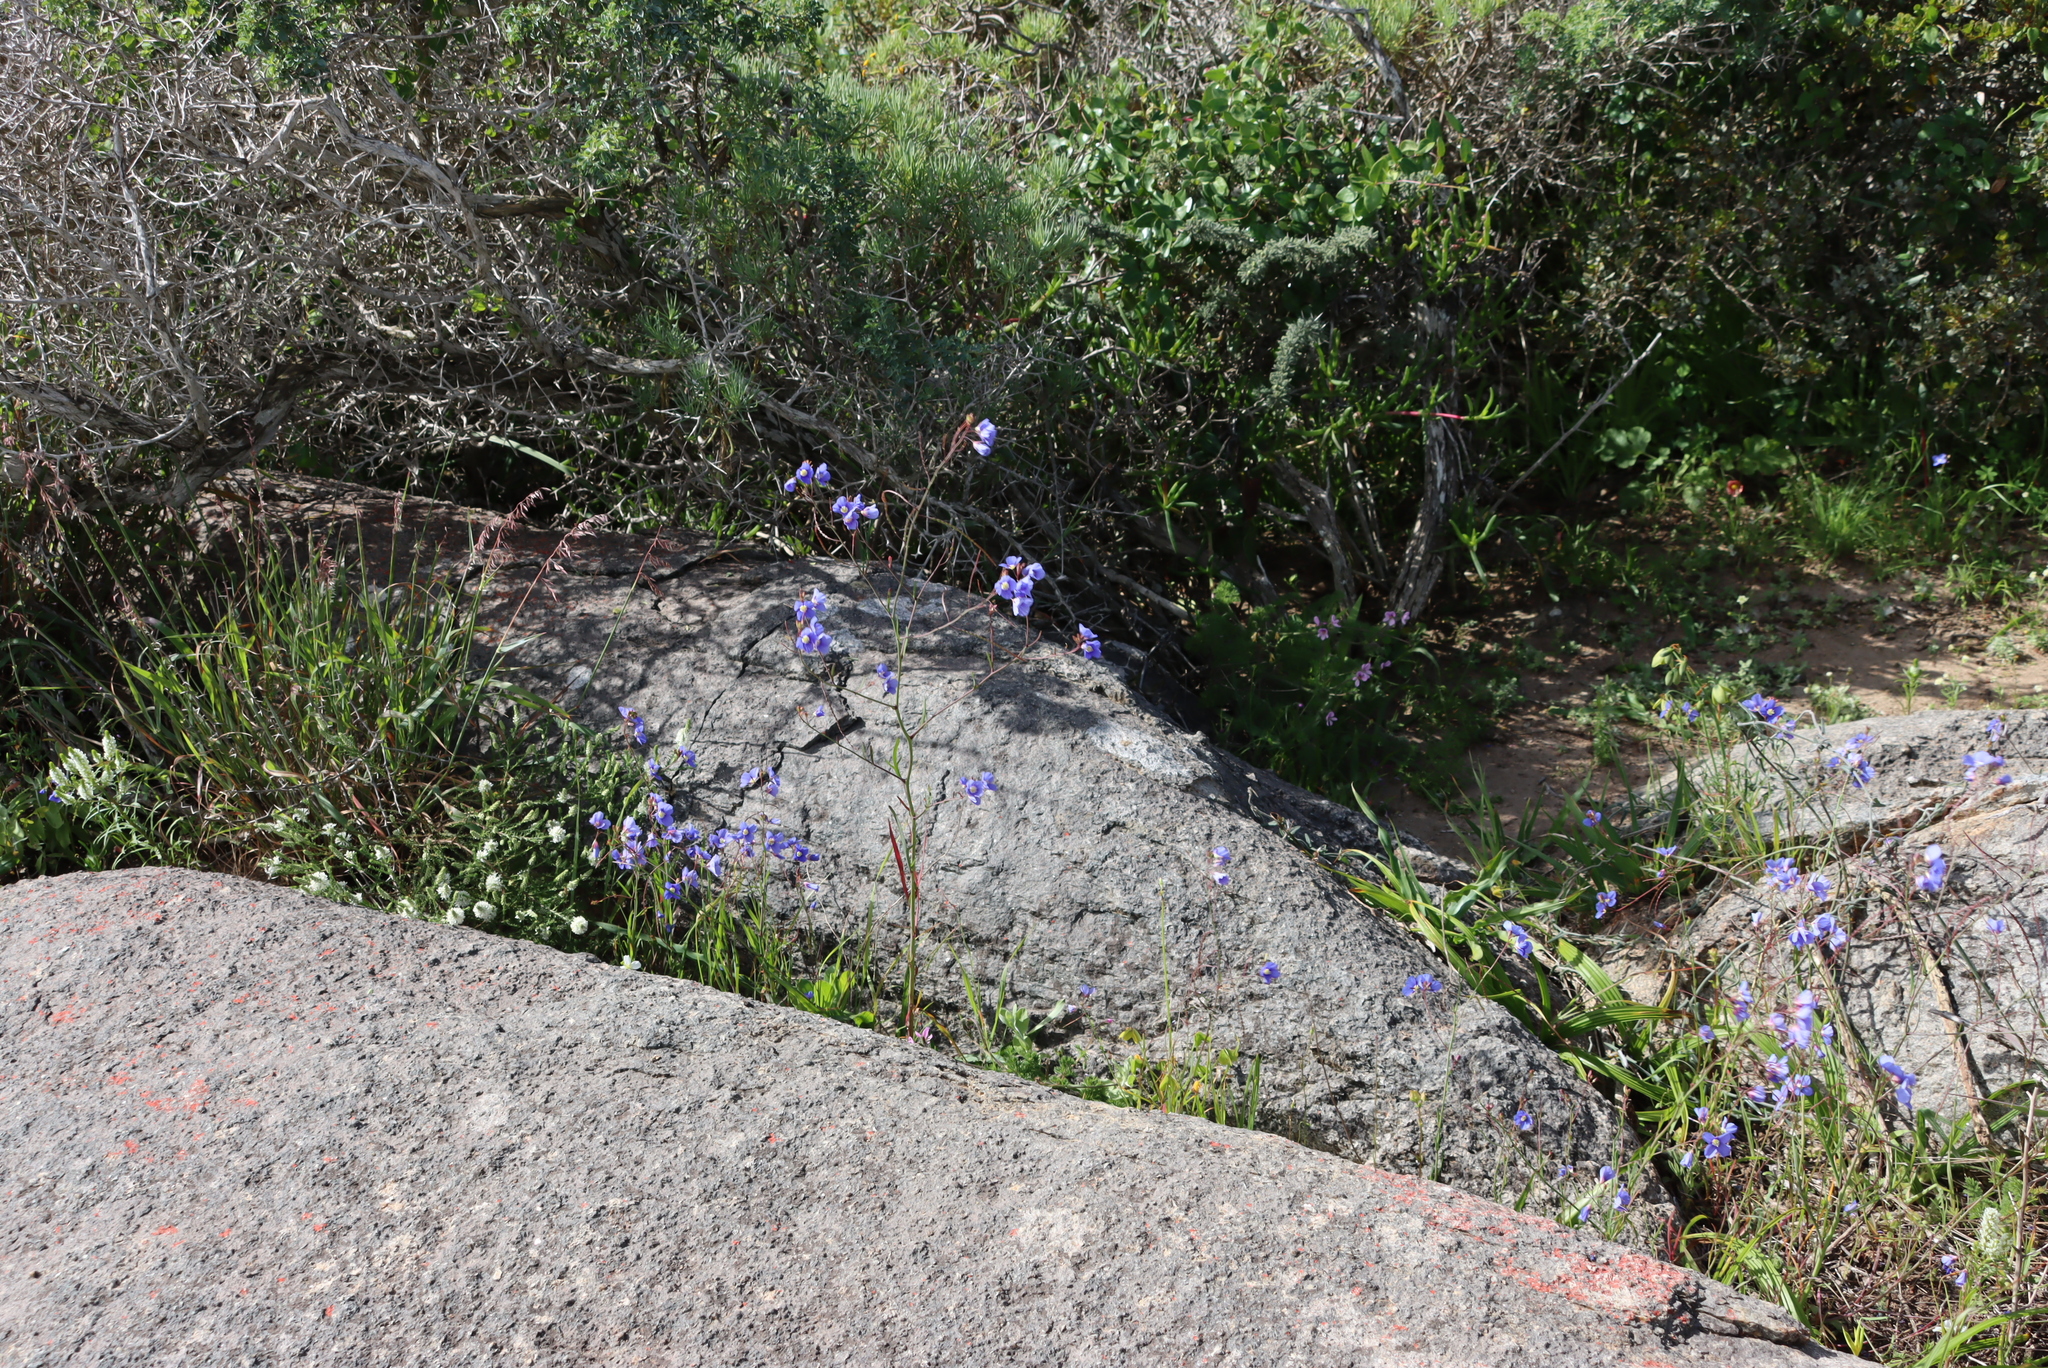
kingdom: Plantae
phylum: Tracheophyta
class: Magnoliopsida
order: Brassicales
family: Brassicaceae
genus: Heliophila
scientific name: Heliophila coronopifolia
